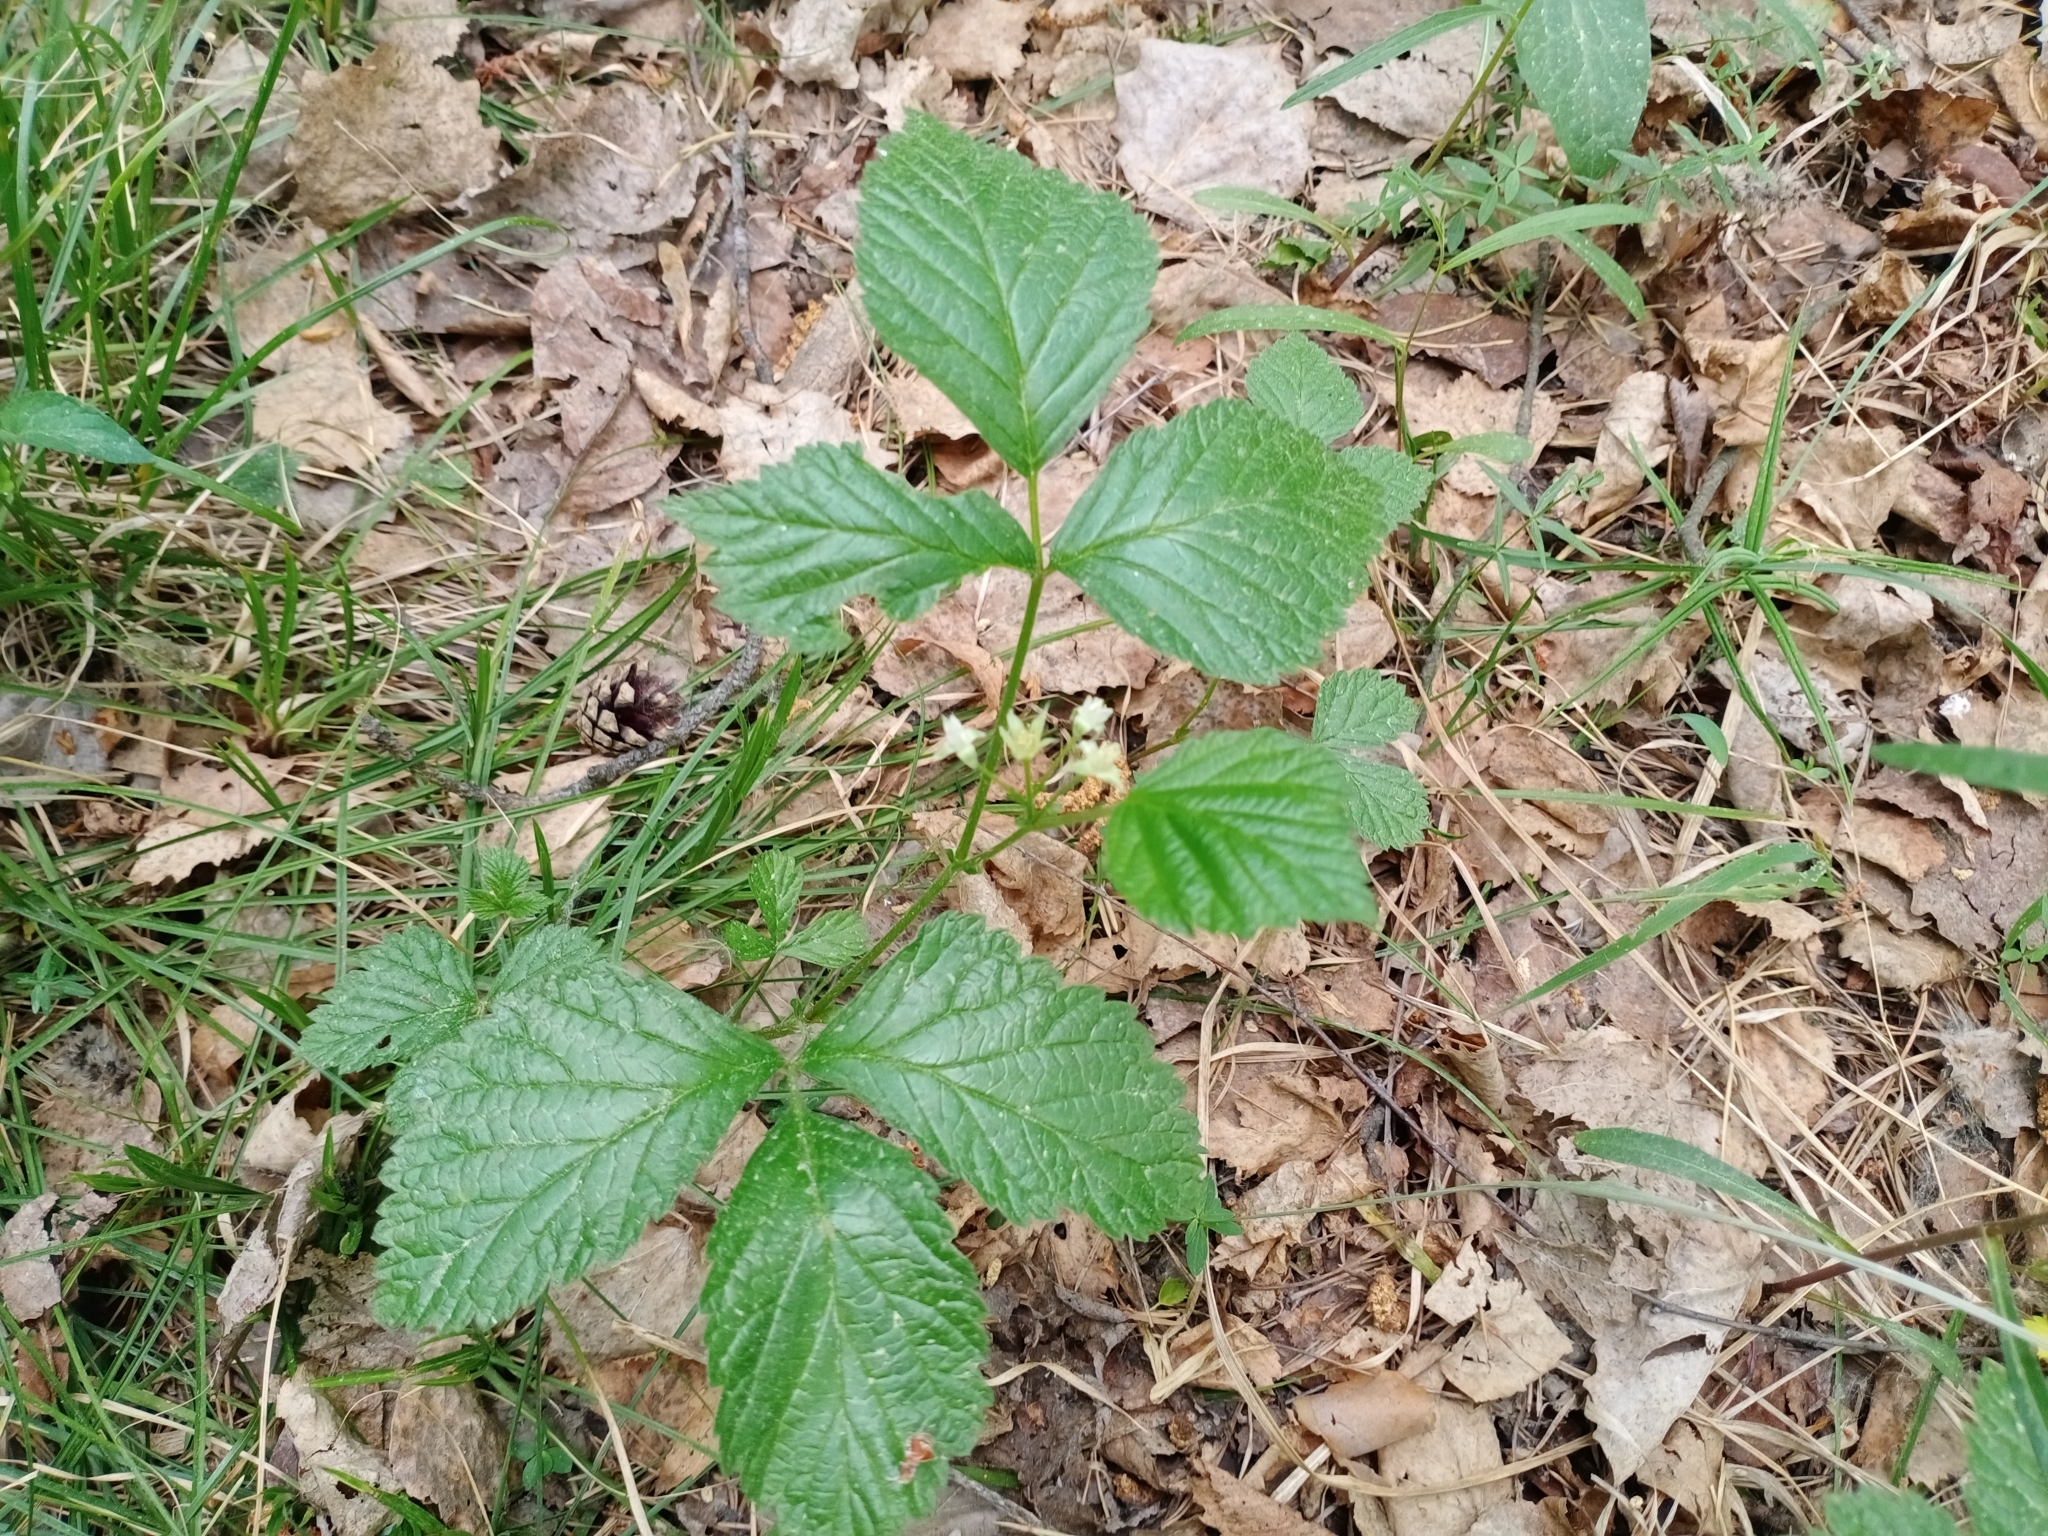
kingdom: Plantae
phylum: Tracheophyta
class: Magnoliopsida
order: Rosales
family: Rosaceae
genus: Rubus
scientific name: Rubus saxatilis
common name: Stone bramble
